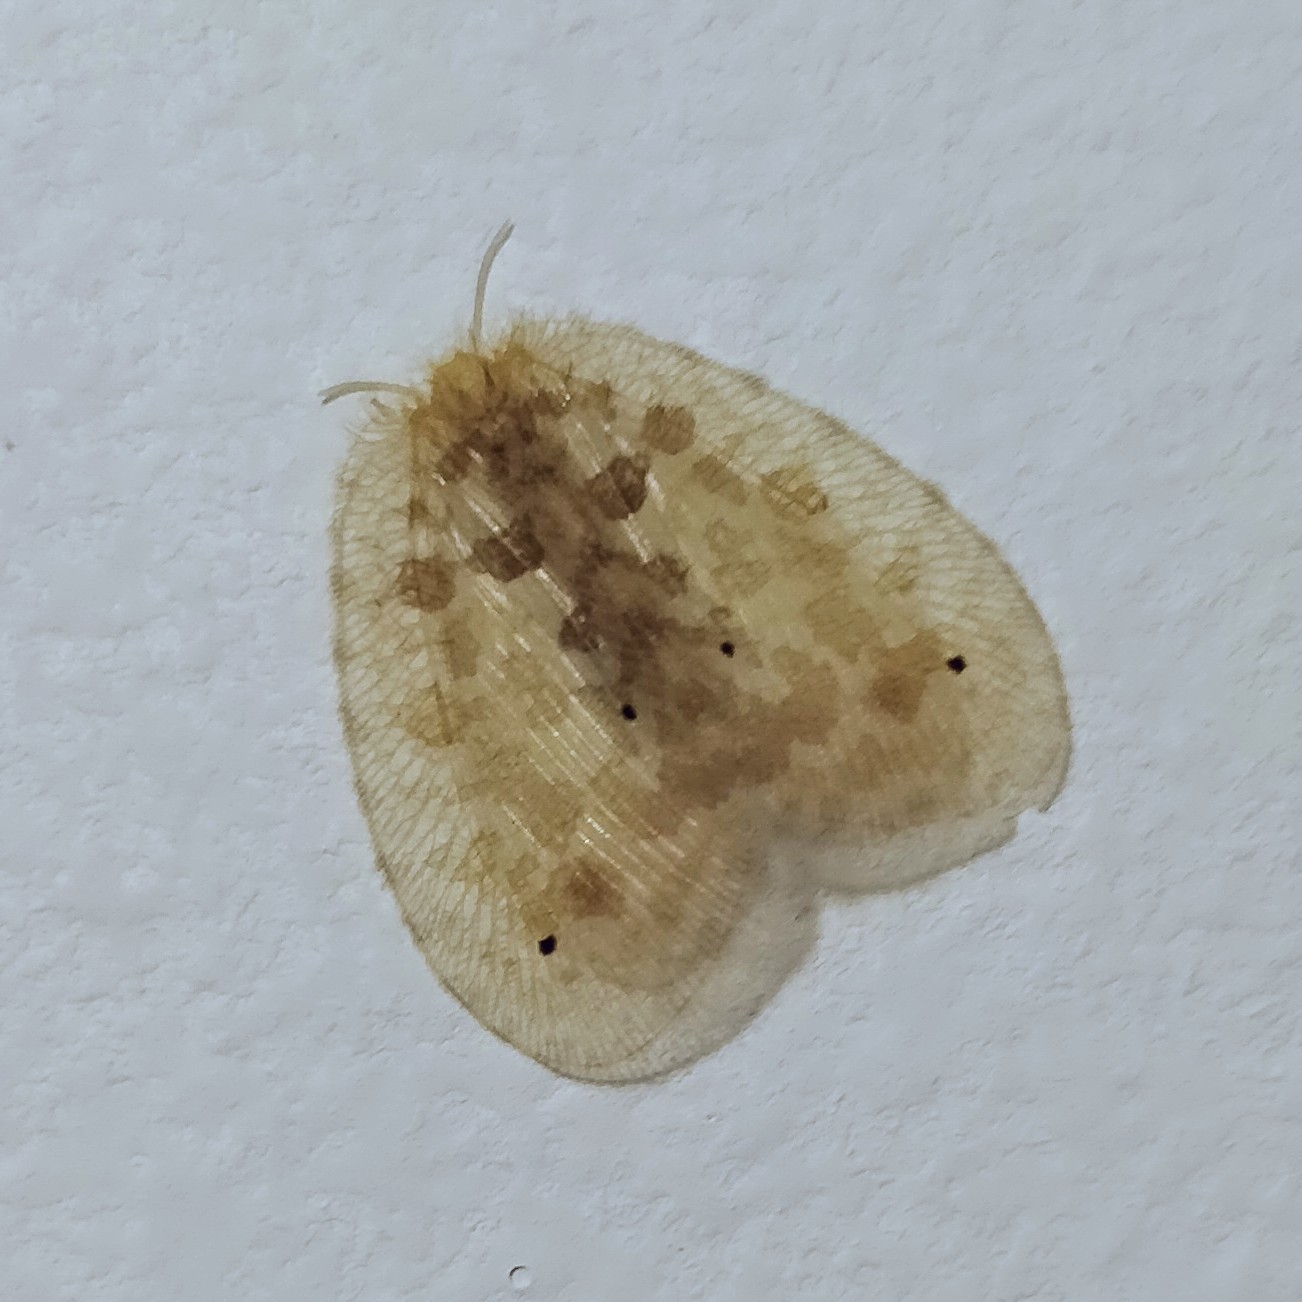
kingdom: Animalia
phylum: Arthropoda
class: Insecta
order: Neuroptera
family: Psychopsidae
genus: Psychopsis
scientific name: Psychopsis insolens
